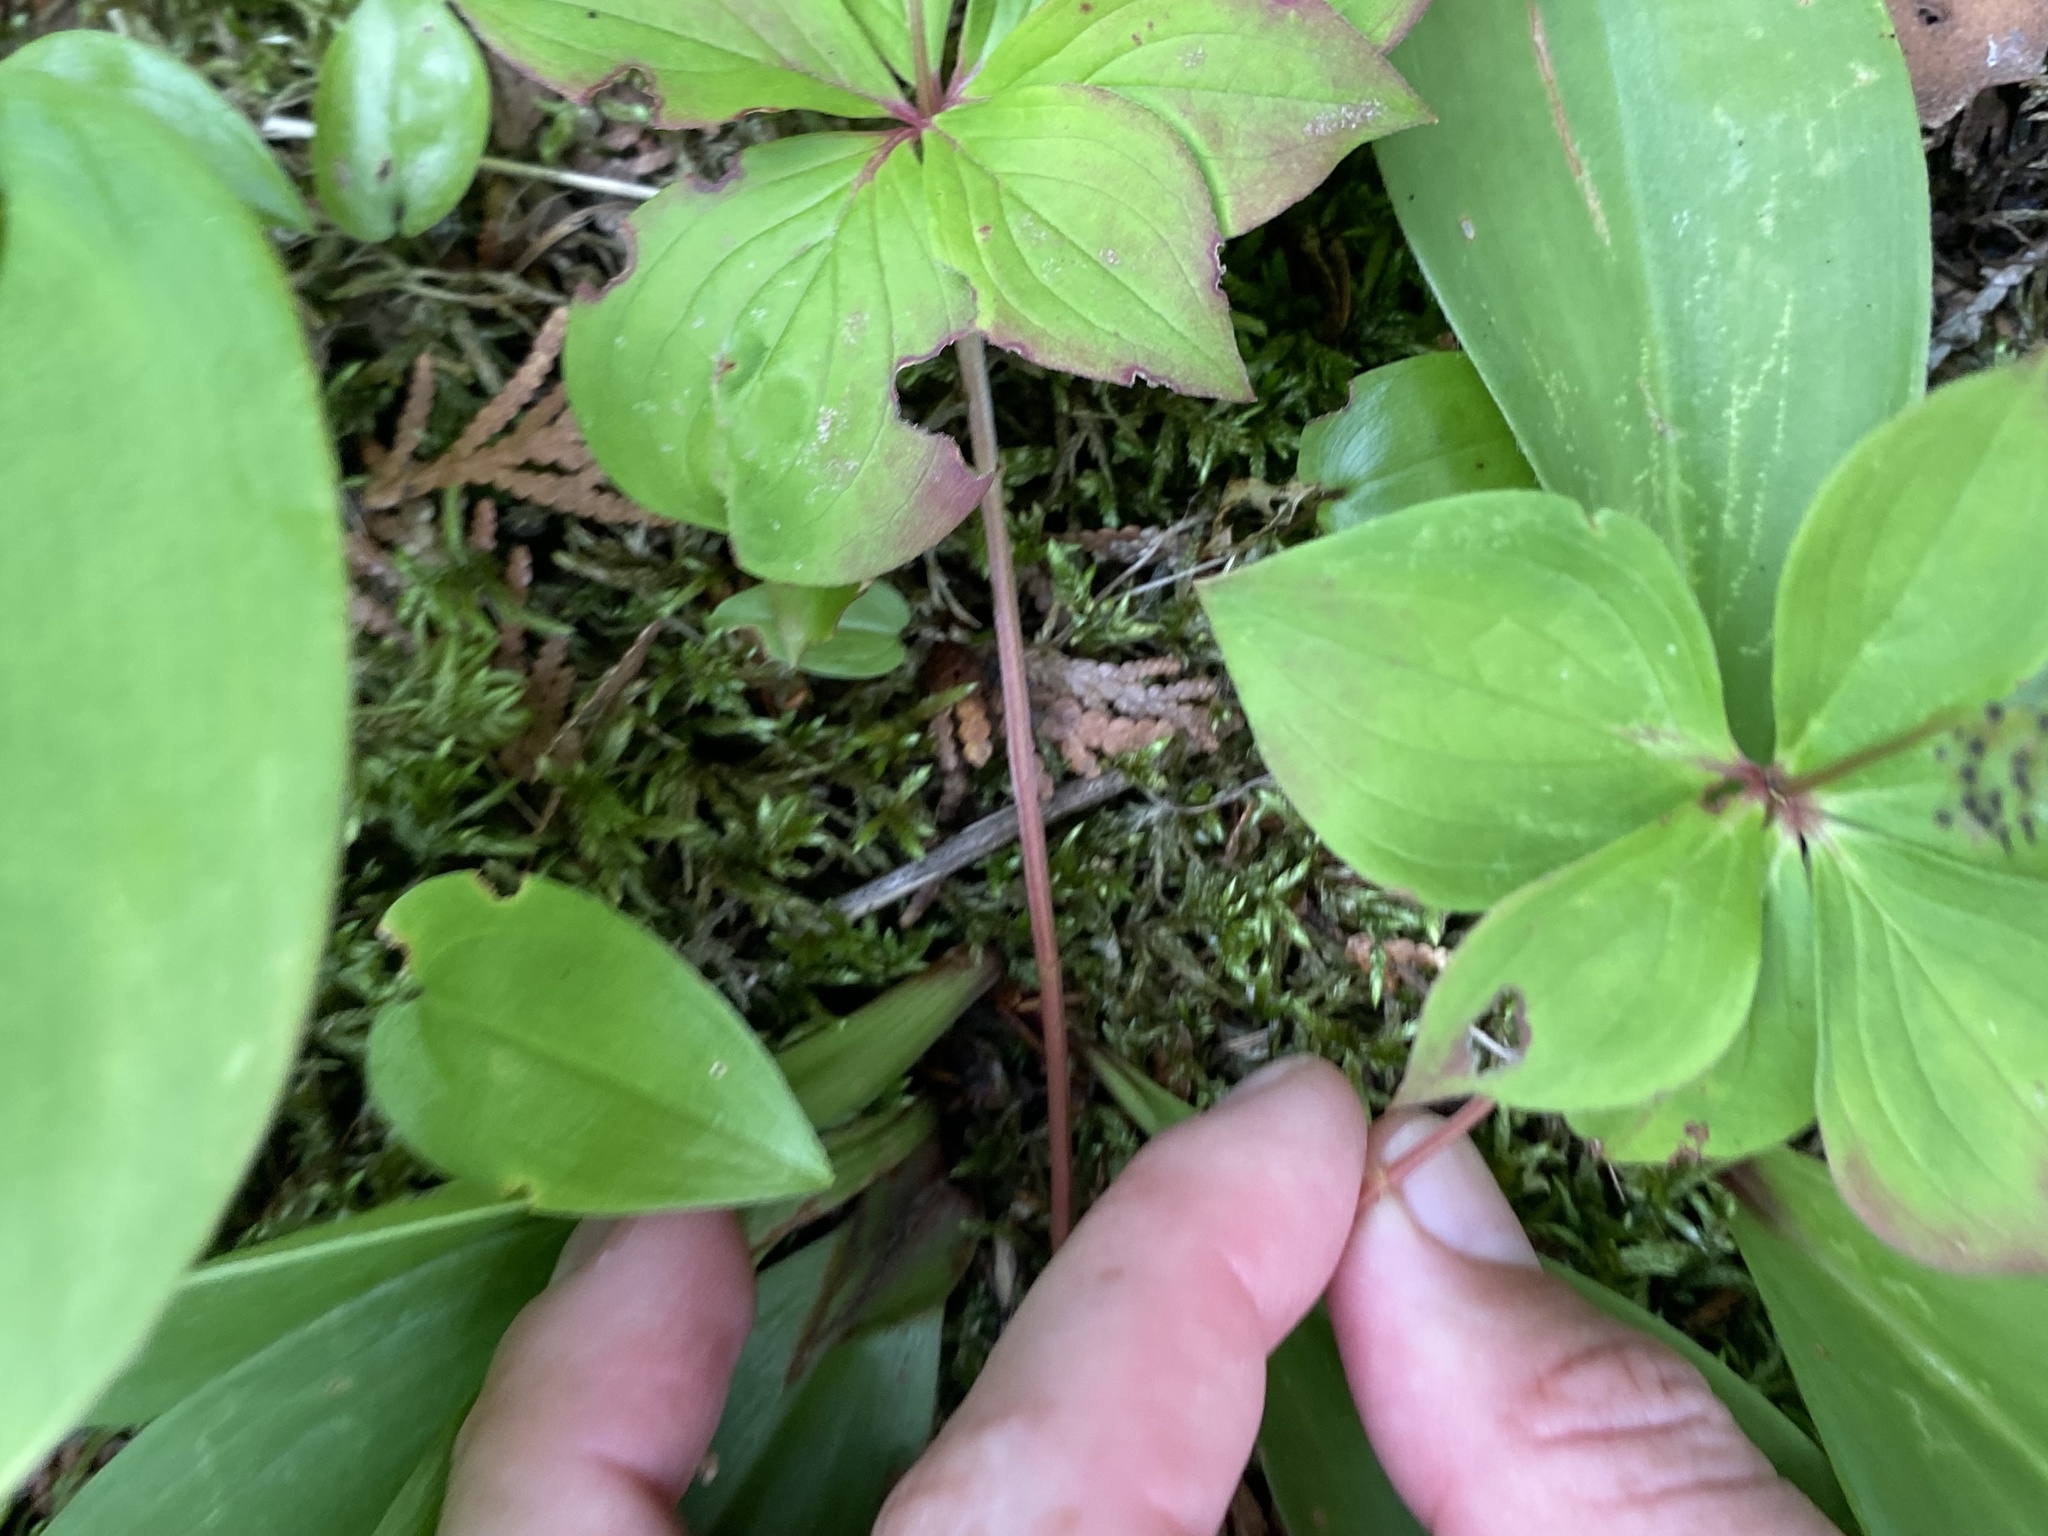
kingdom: Plantae
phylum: Tracheophyta
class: Magnoliopsida
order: Cornales
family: Cornaceae
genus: Cornus
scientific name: Cornus canadensis
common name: Creeping dogwood
